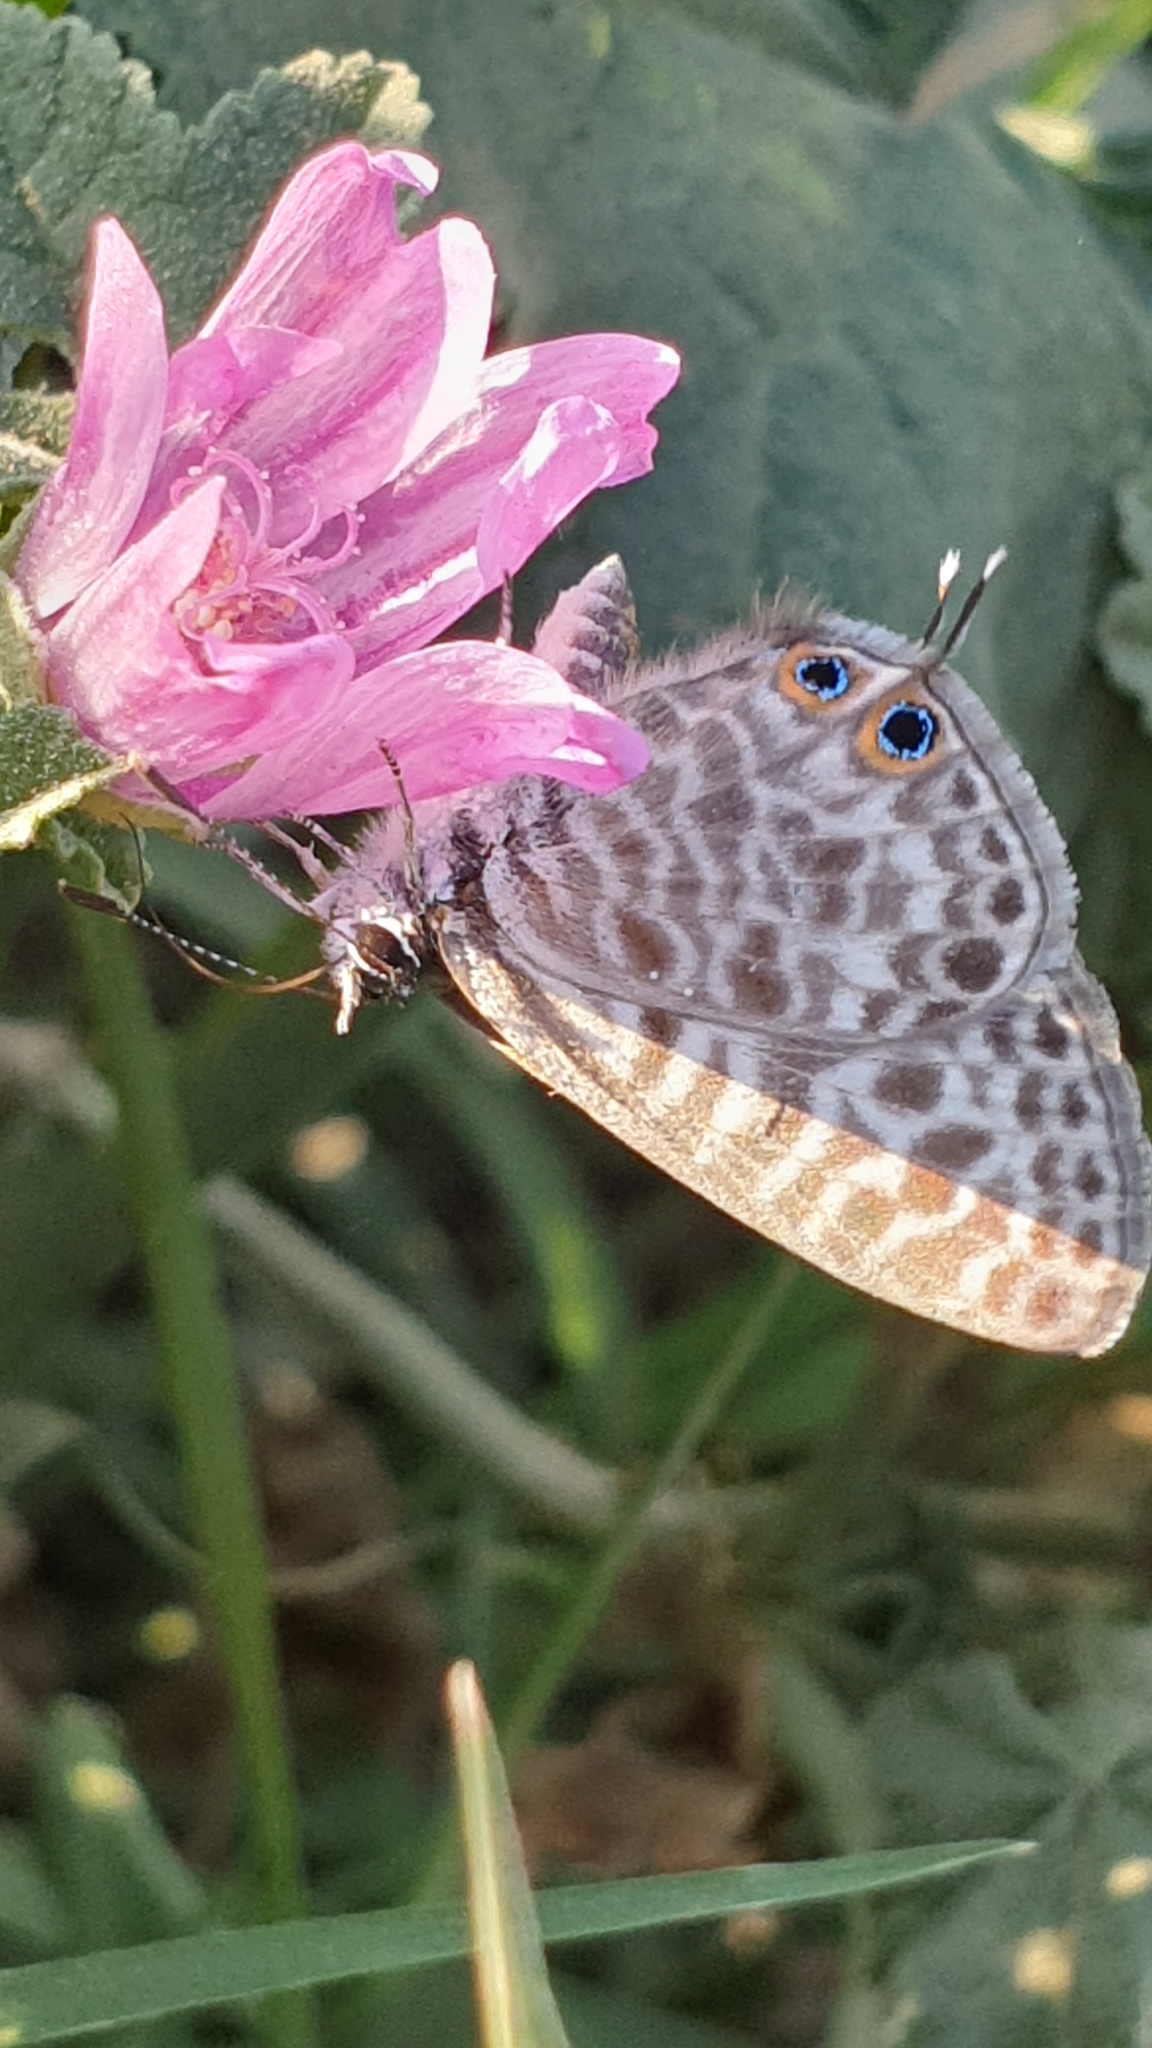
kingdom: Animalia
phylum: Arthropoda
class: Insecta
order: Lepidoptera
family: Lycaenidae
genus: Leptotes
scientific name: Leptotes pirithous
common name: Lang's short-tailed blue
